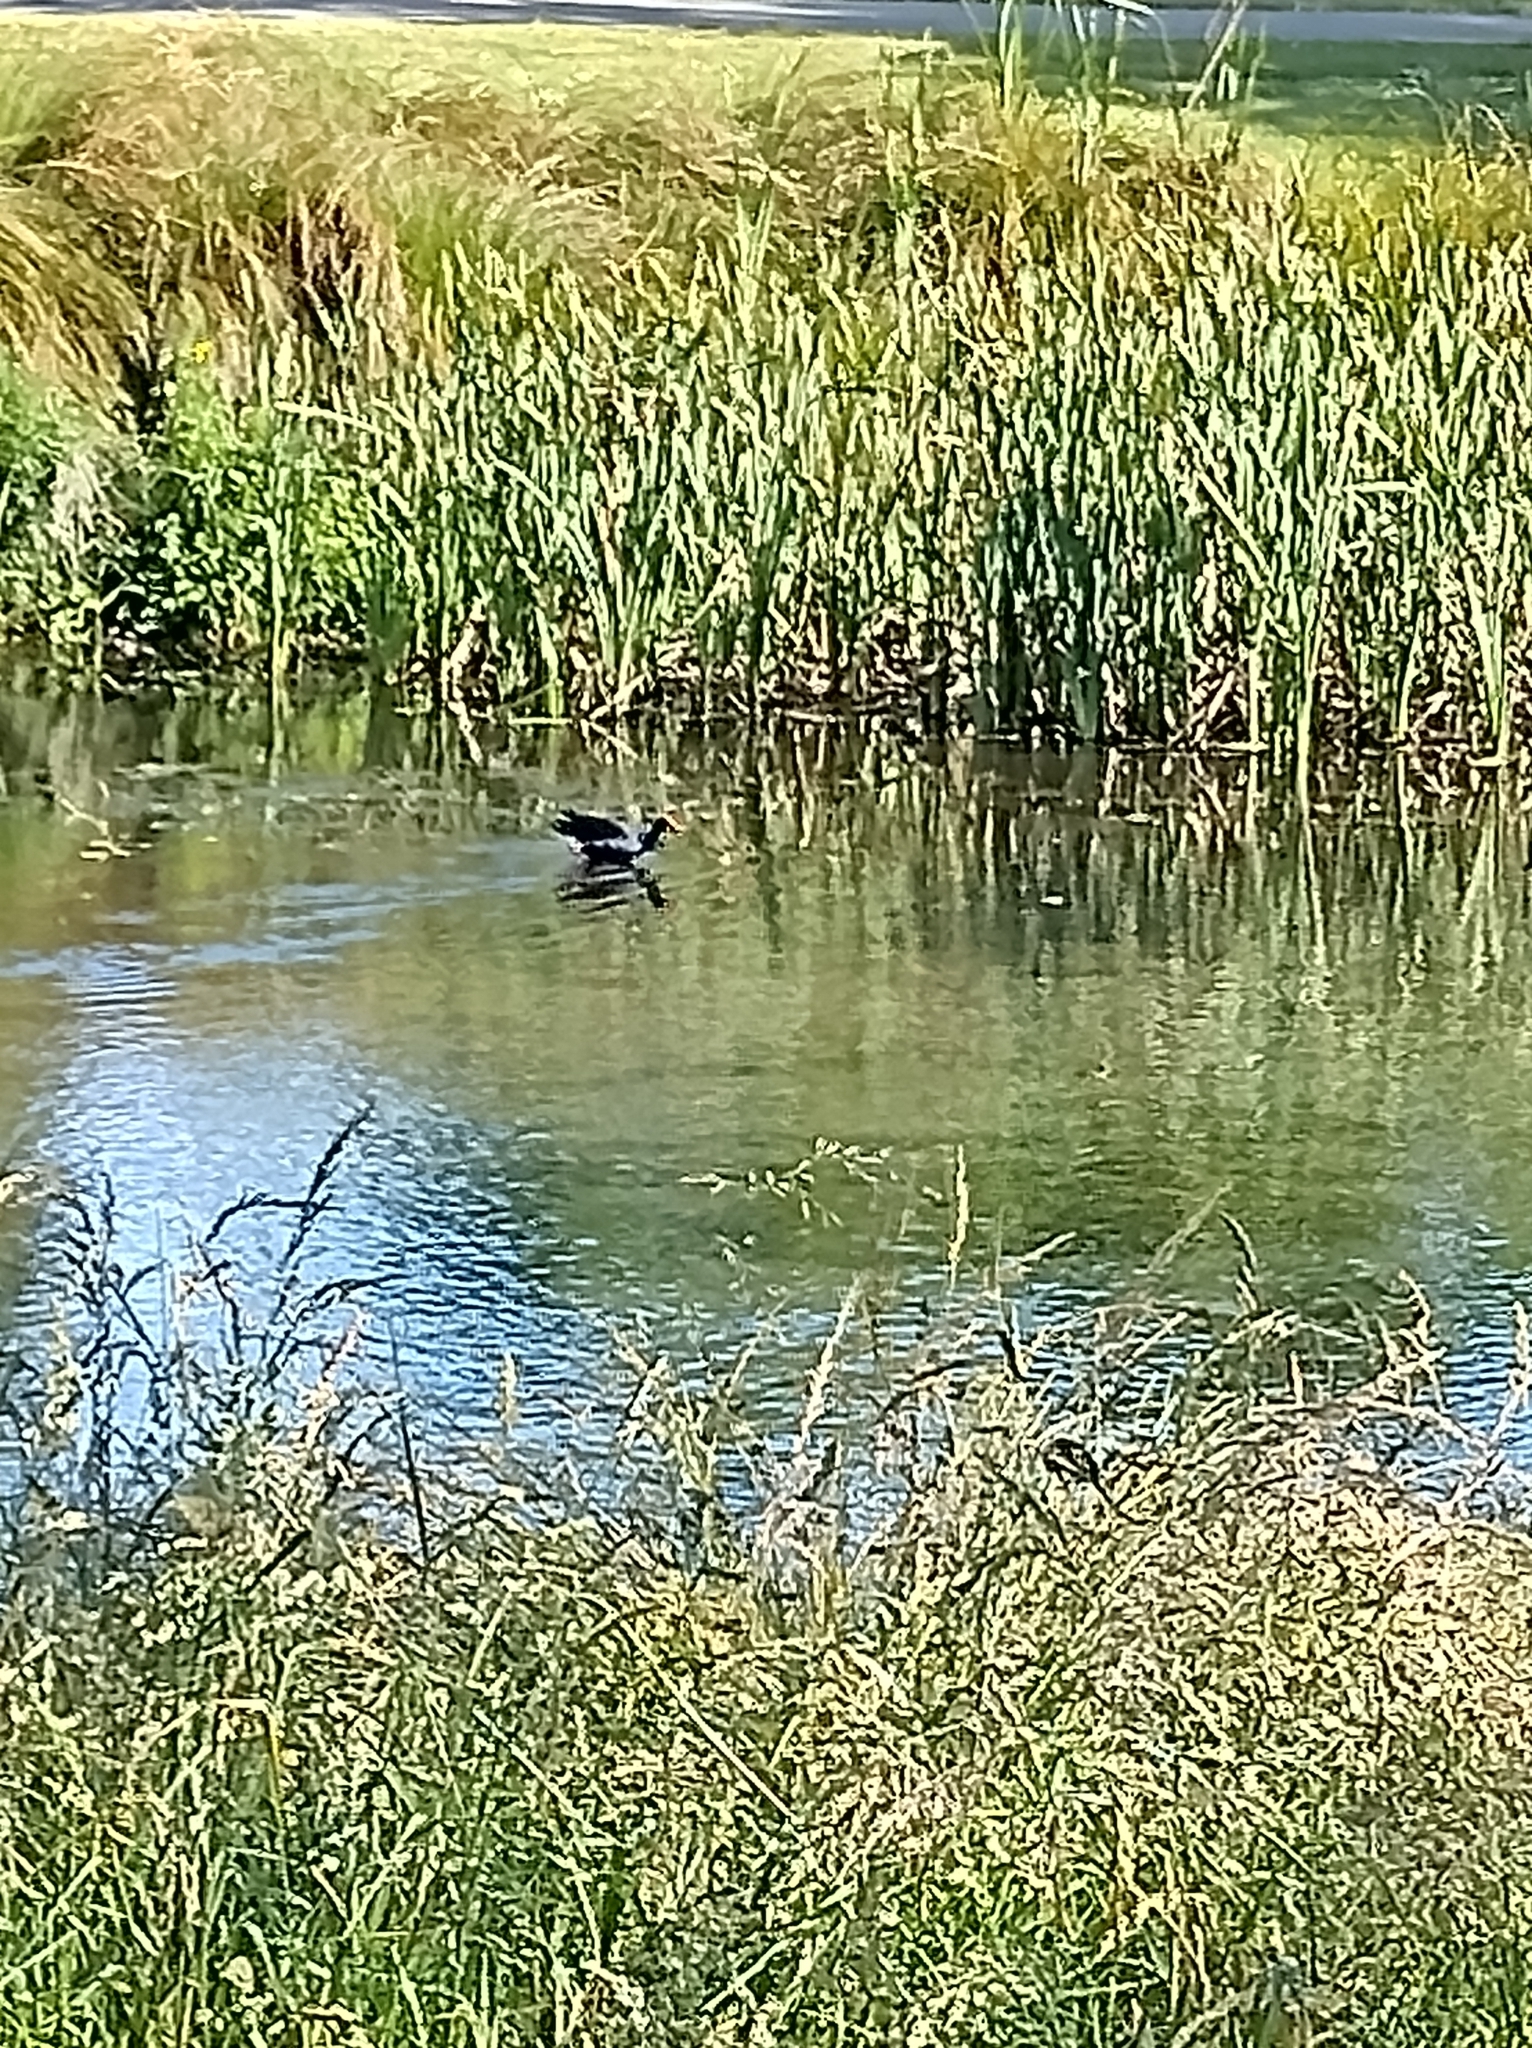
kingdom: Animalia
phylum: Chordata
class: Aves
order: Gruiformes
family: Rallidae
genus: Porphyrio
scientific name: Porphyrio melanotus
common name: Australasian swamphen
